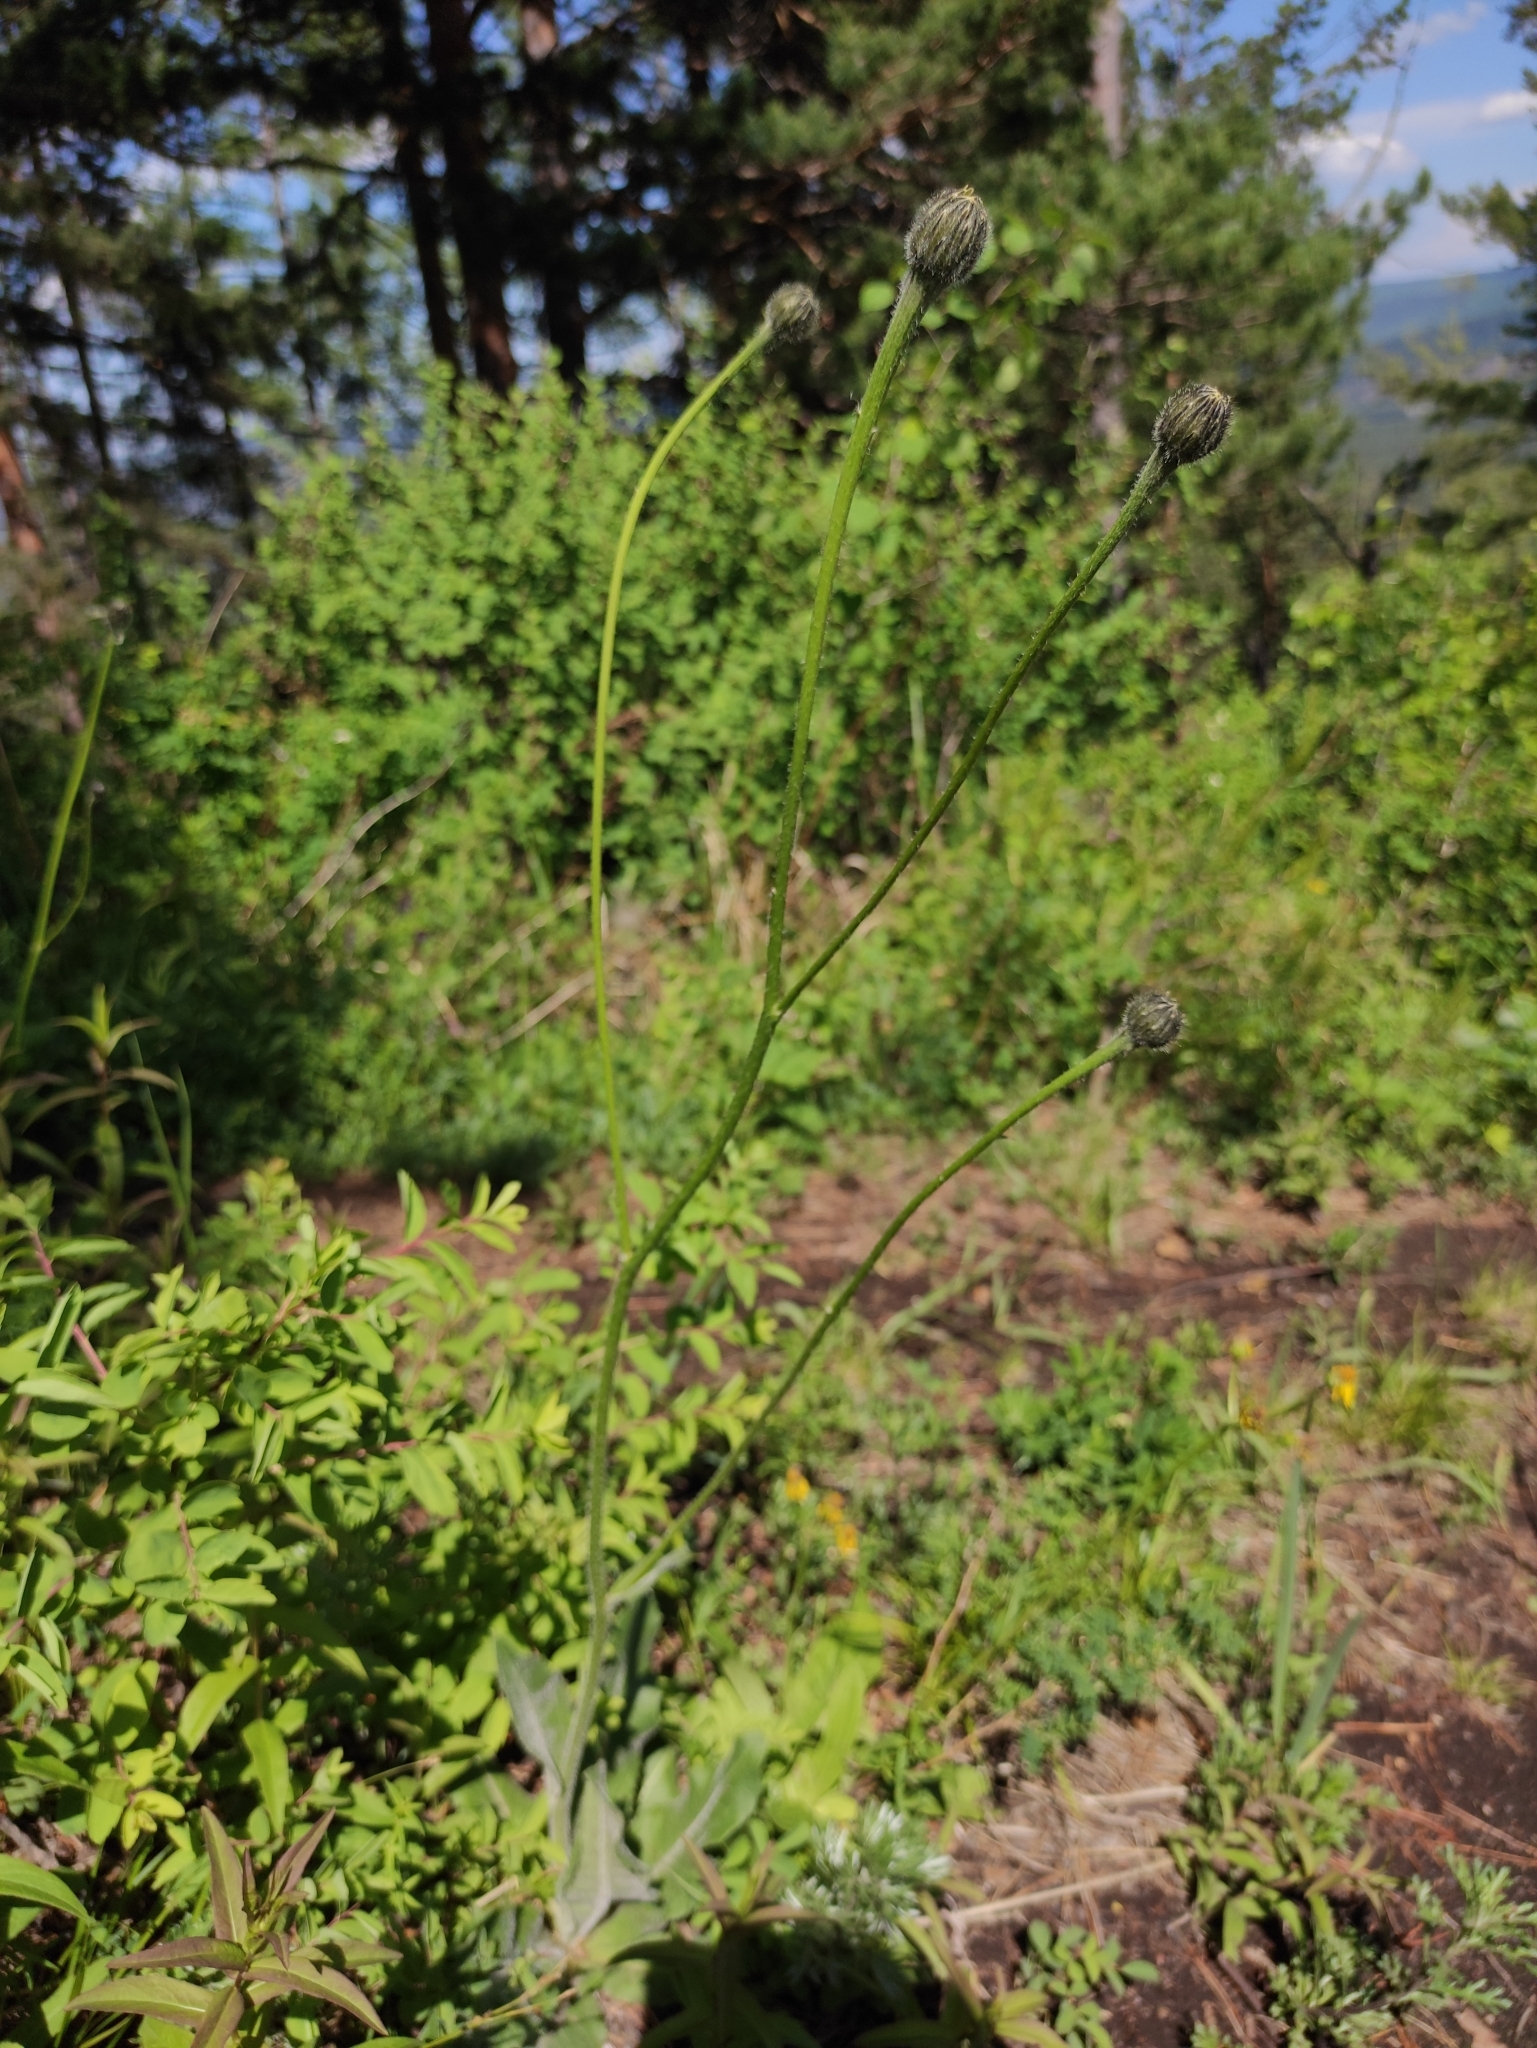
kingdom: Plantae
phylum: Tracheophyta
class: Magnoliopsida
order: Asterales
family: Asteraceae
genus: Trommsdorffia
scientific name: Trommsdorffia maculata
